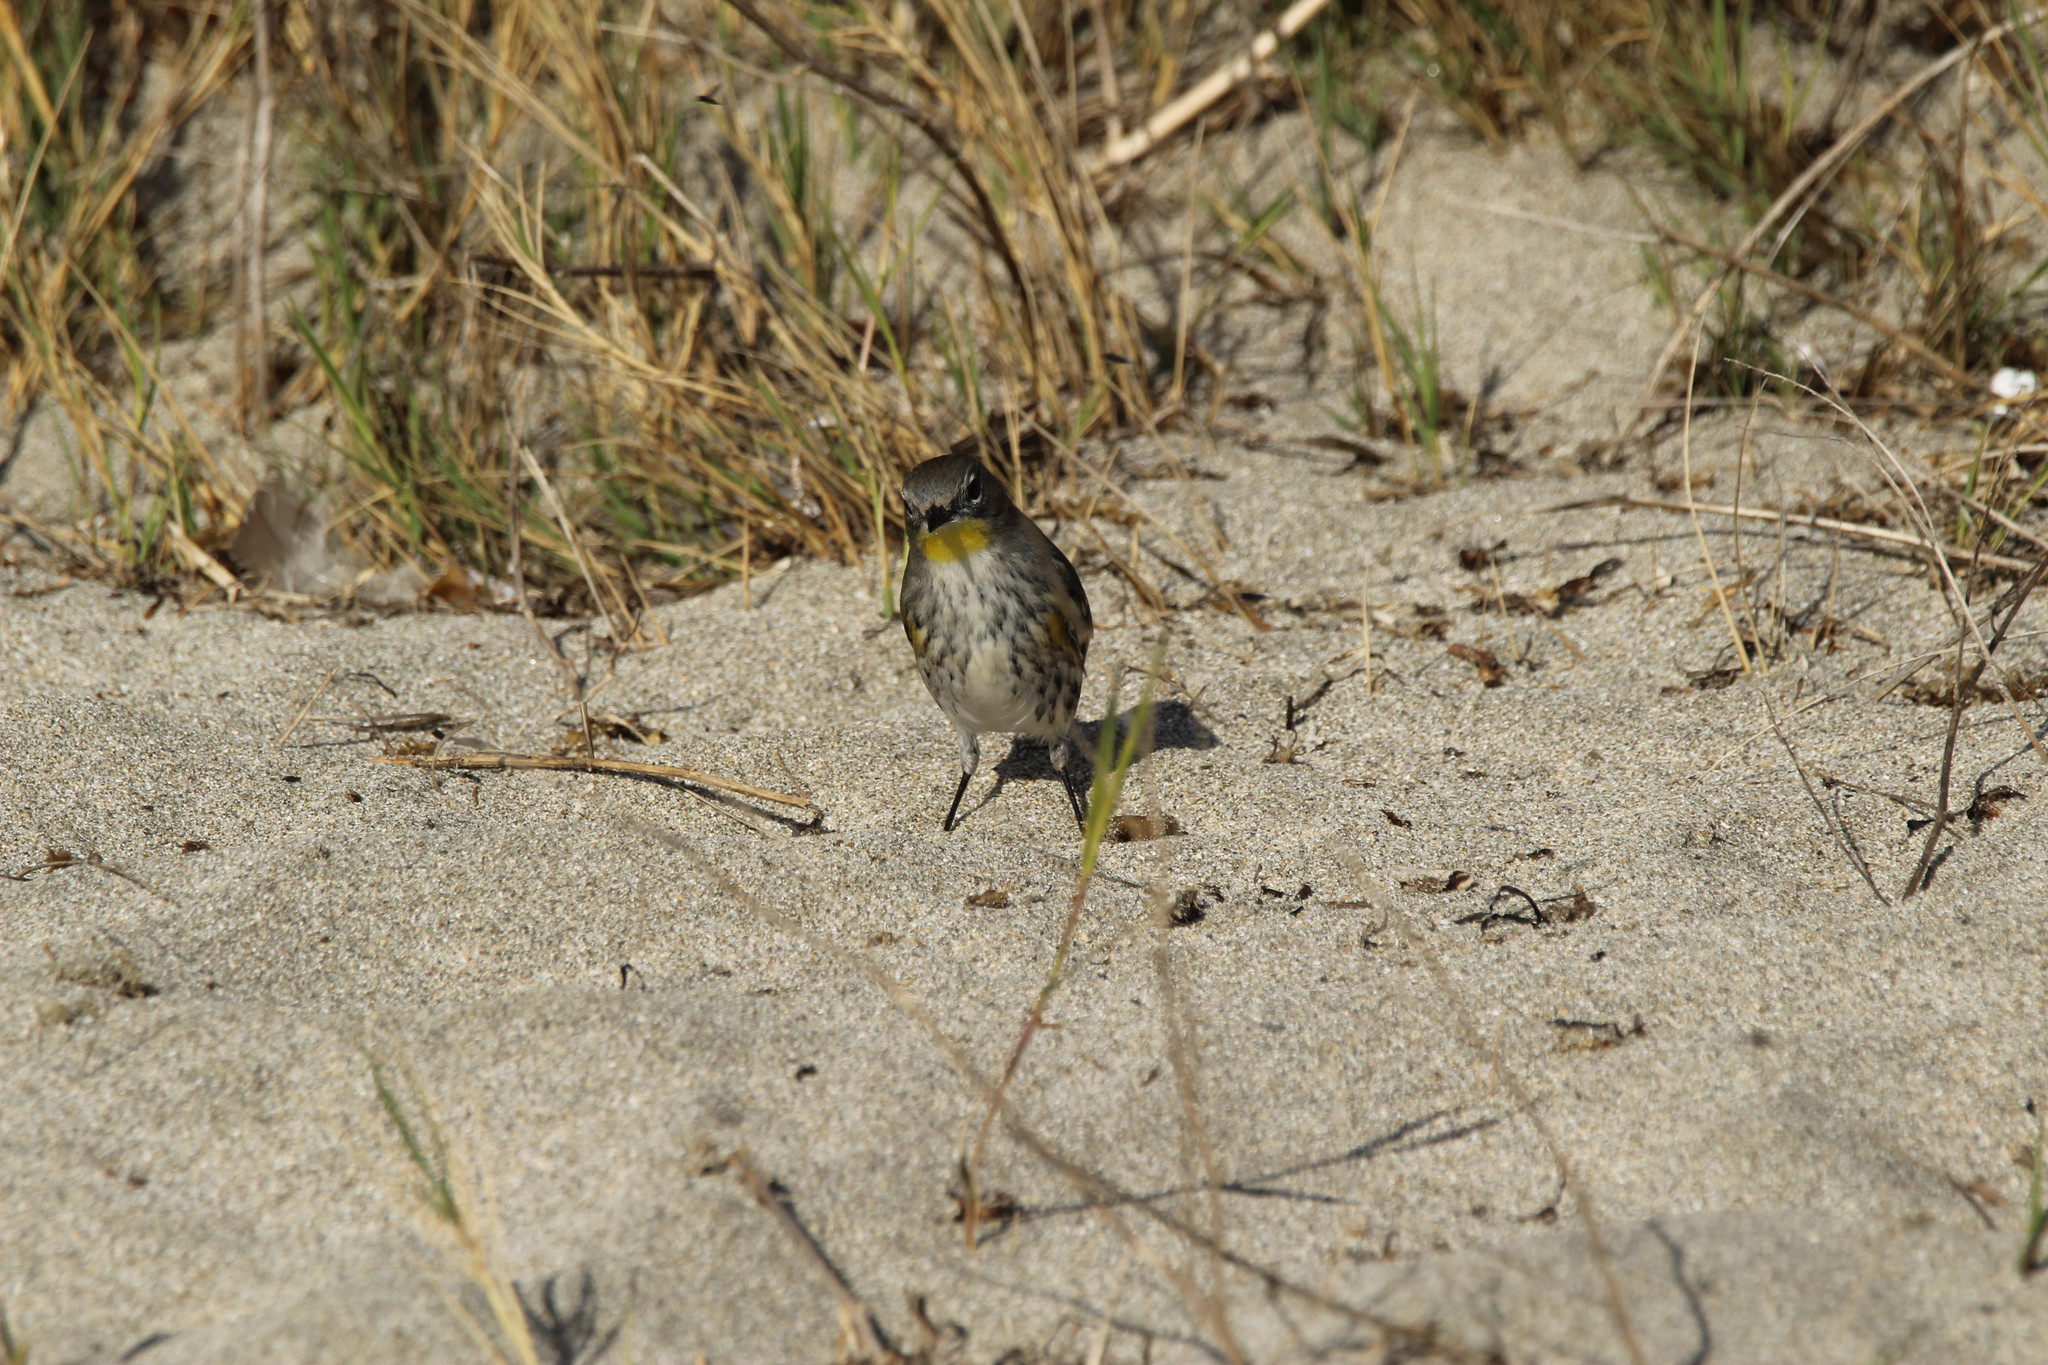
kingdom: Animalia
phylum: Chordata
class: Aves
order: Passeriformes
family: Parulidae
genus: Setophaga
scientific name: Setophaga coronata
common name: Myrtle warbler
